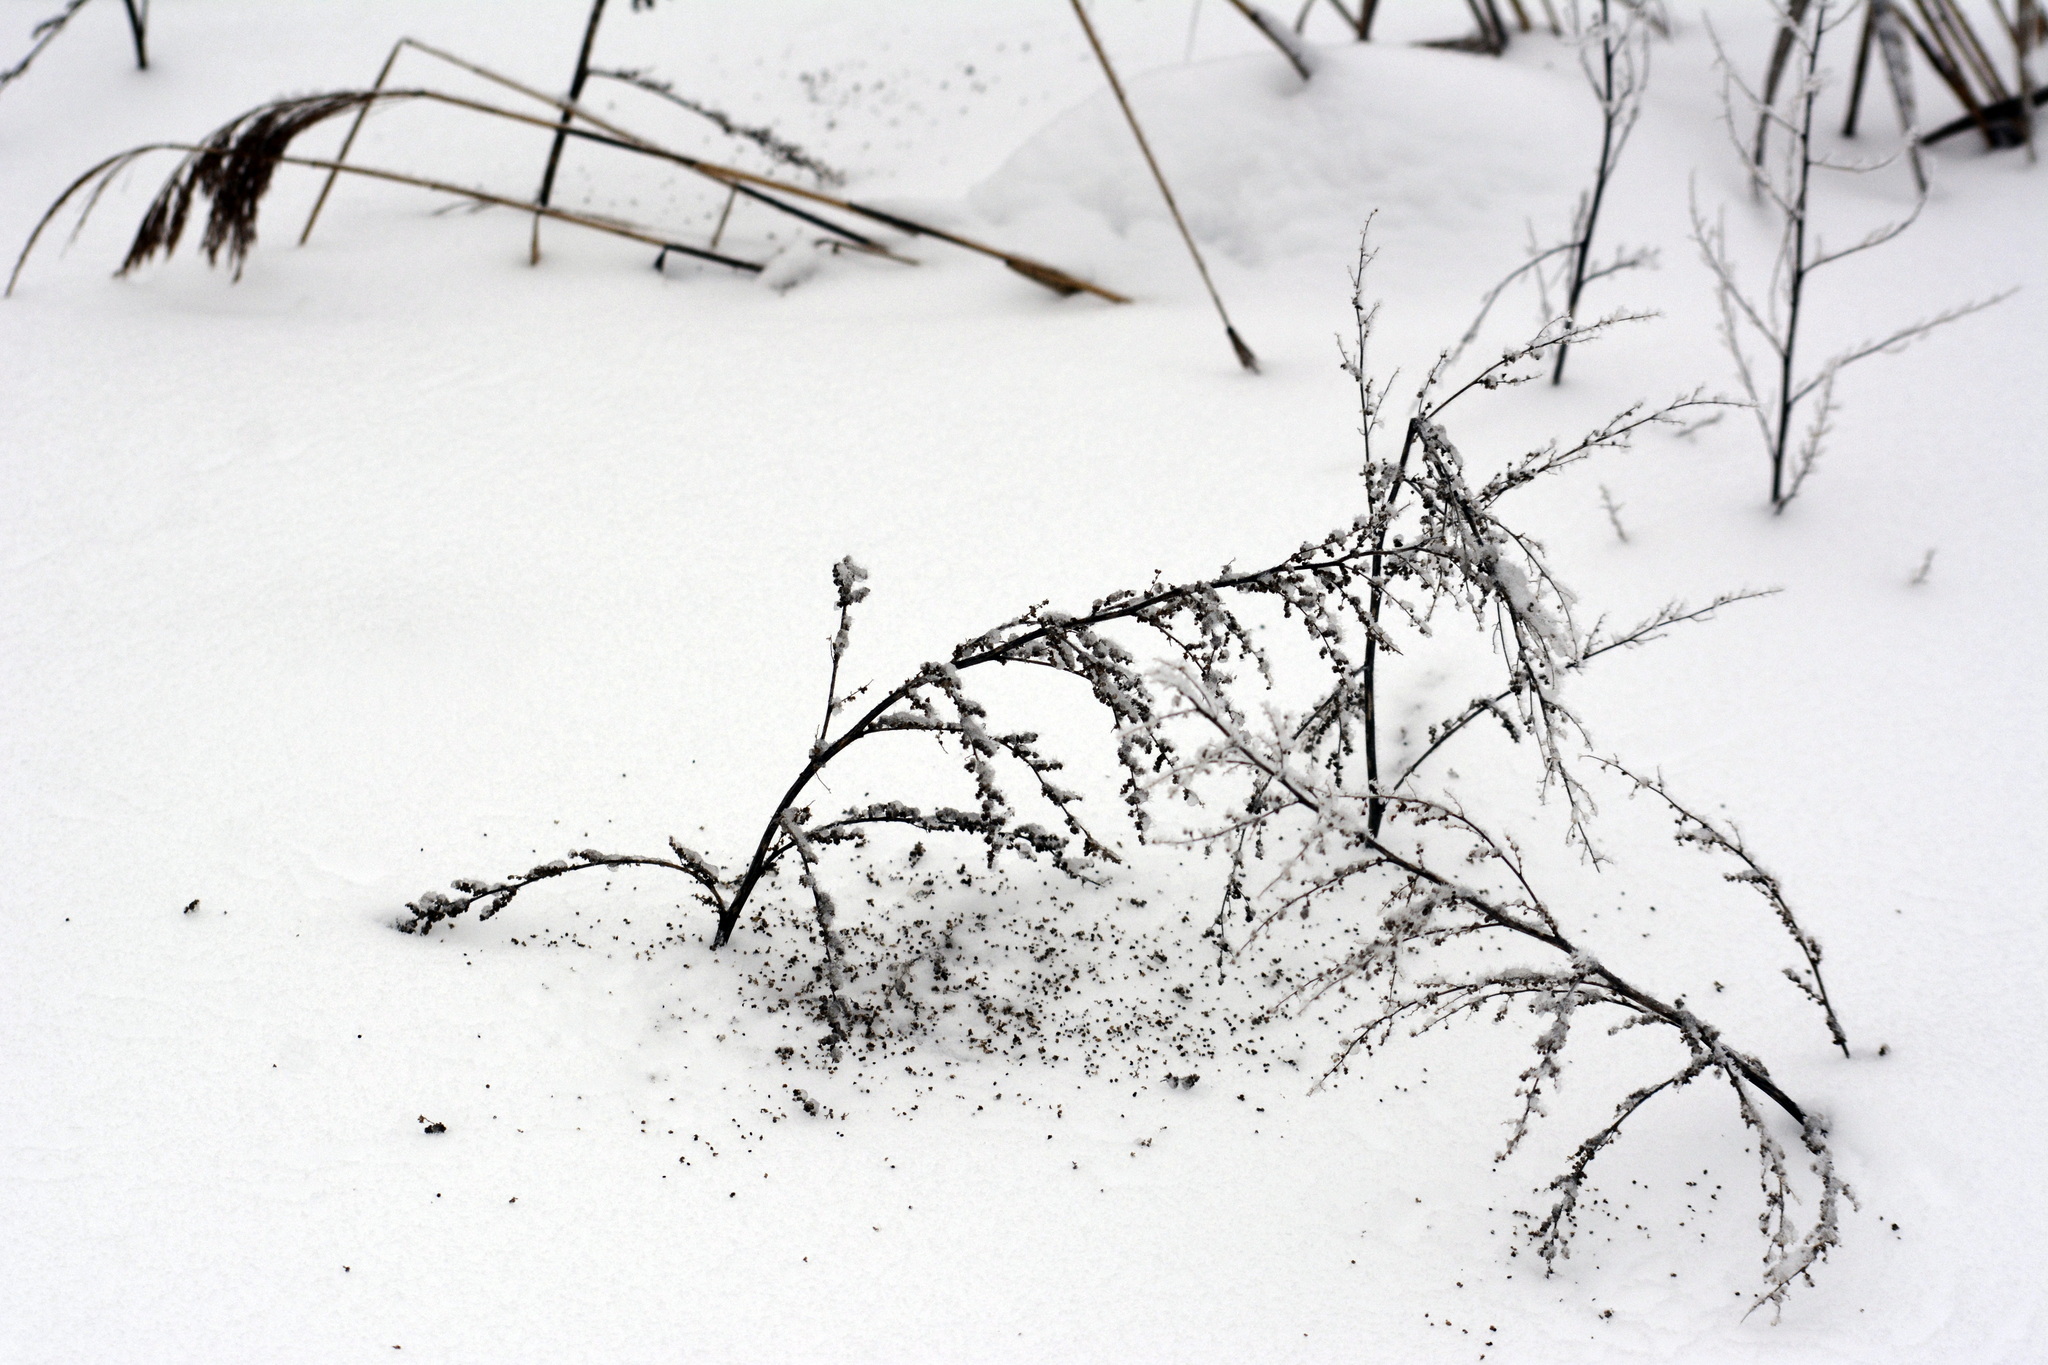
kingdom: Plantae
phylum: Tracheophyta
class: Magnoliopsida
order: Asterales
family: Asteraceae
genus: Artemisia
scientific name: Artemisia vulgaris
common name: Mugwort
